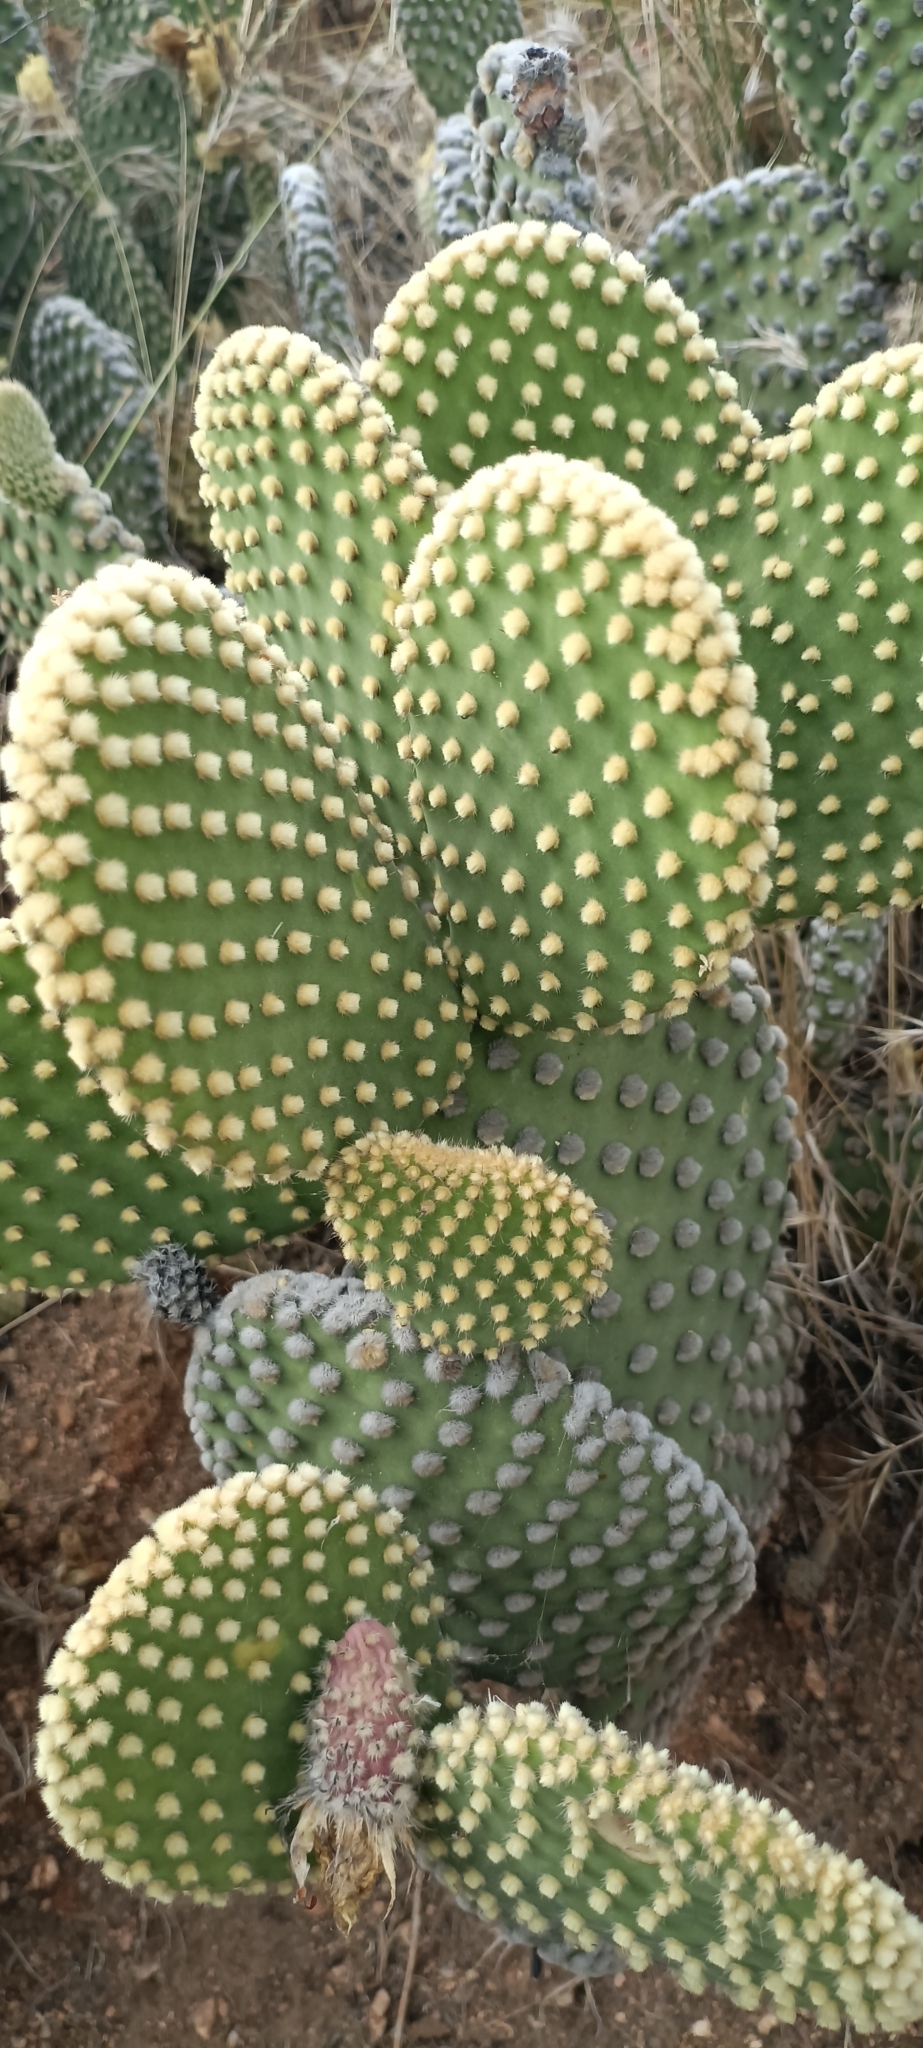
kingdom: Plantae
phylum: Tracheophyta
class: Magnoliopsida
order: Caryophyllales
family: Cactaceae
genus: Opuntia
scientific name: Opuntia microdasys
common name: Angel's-wings
